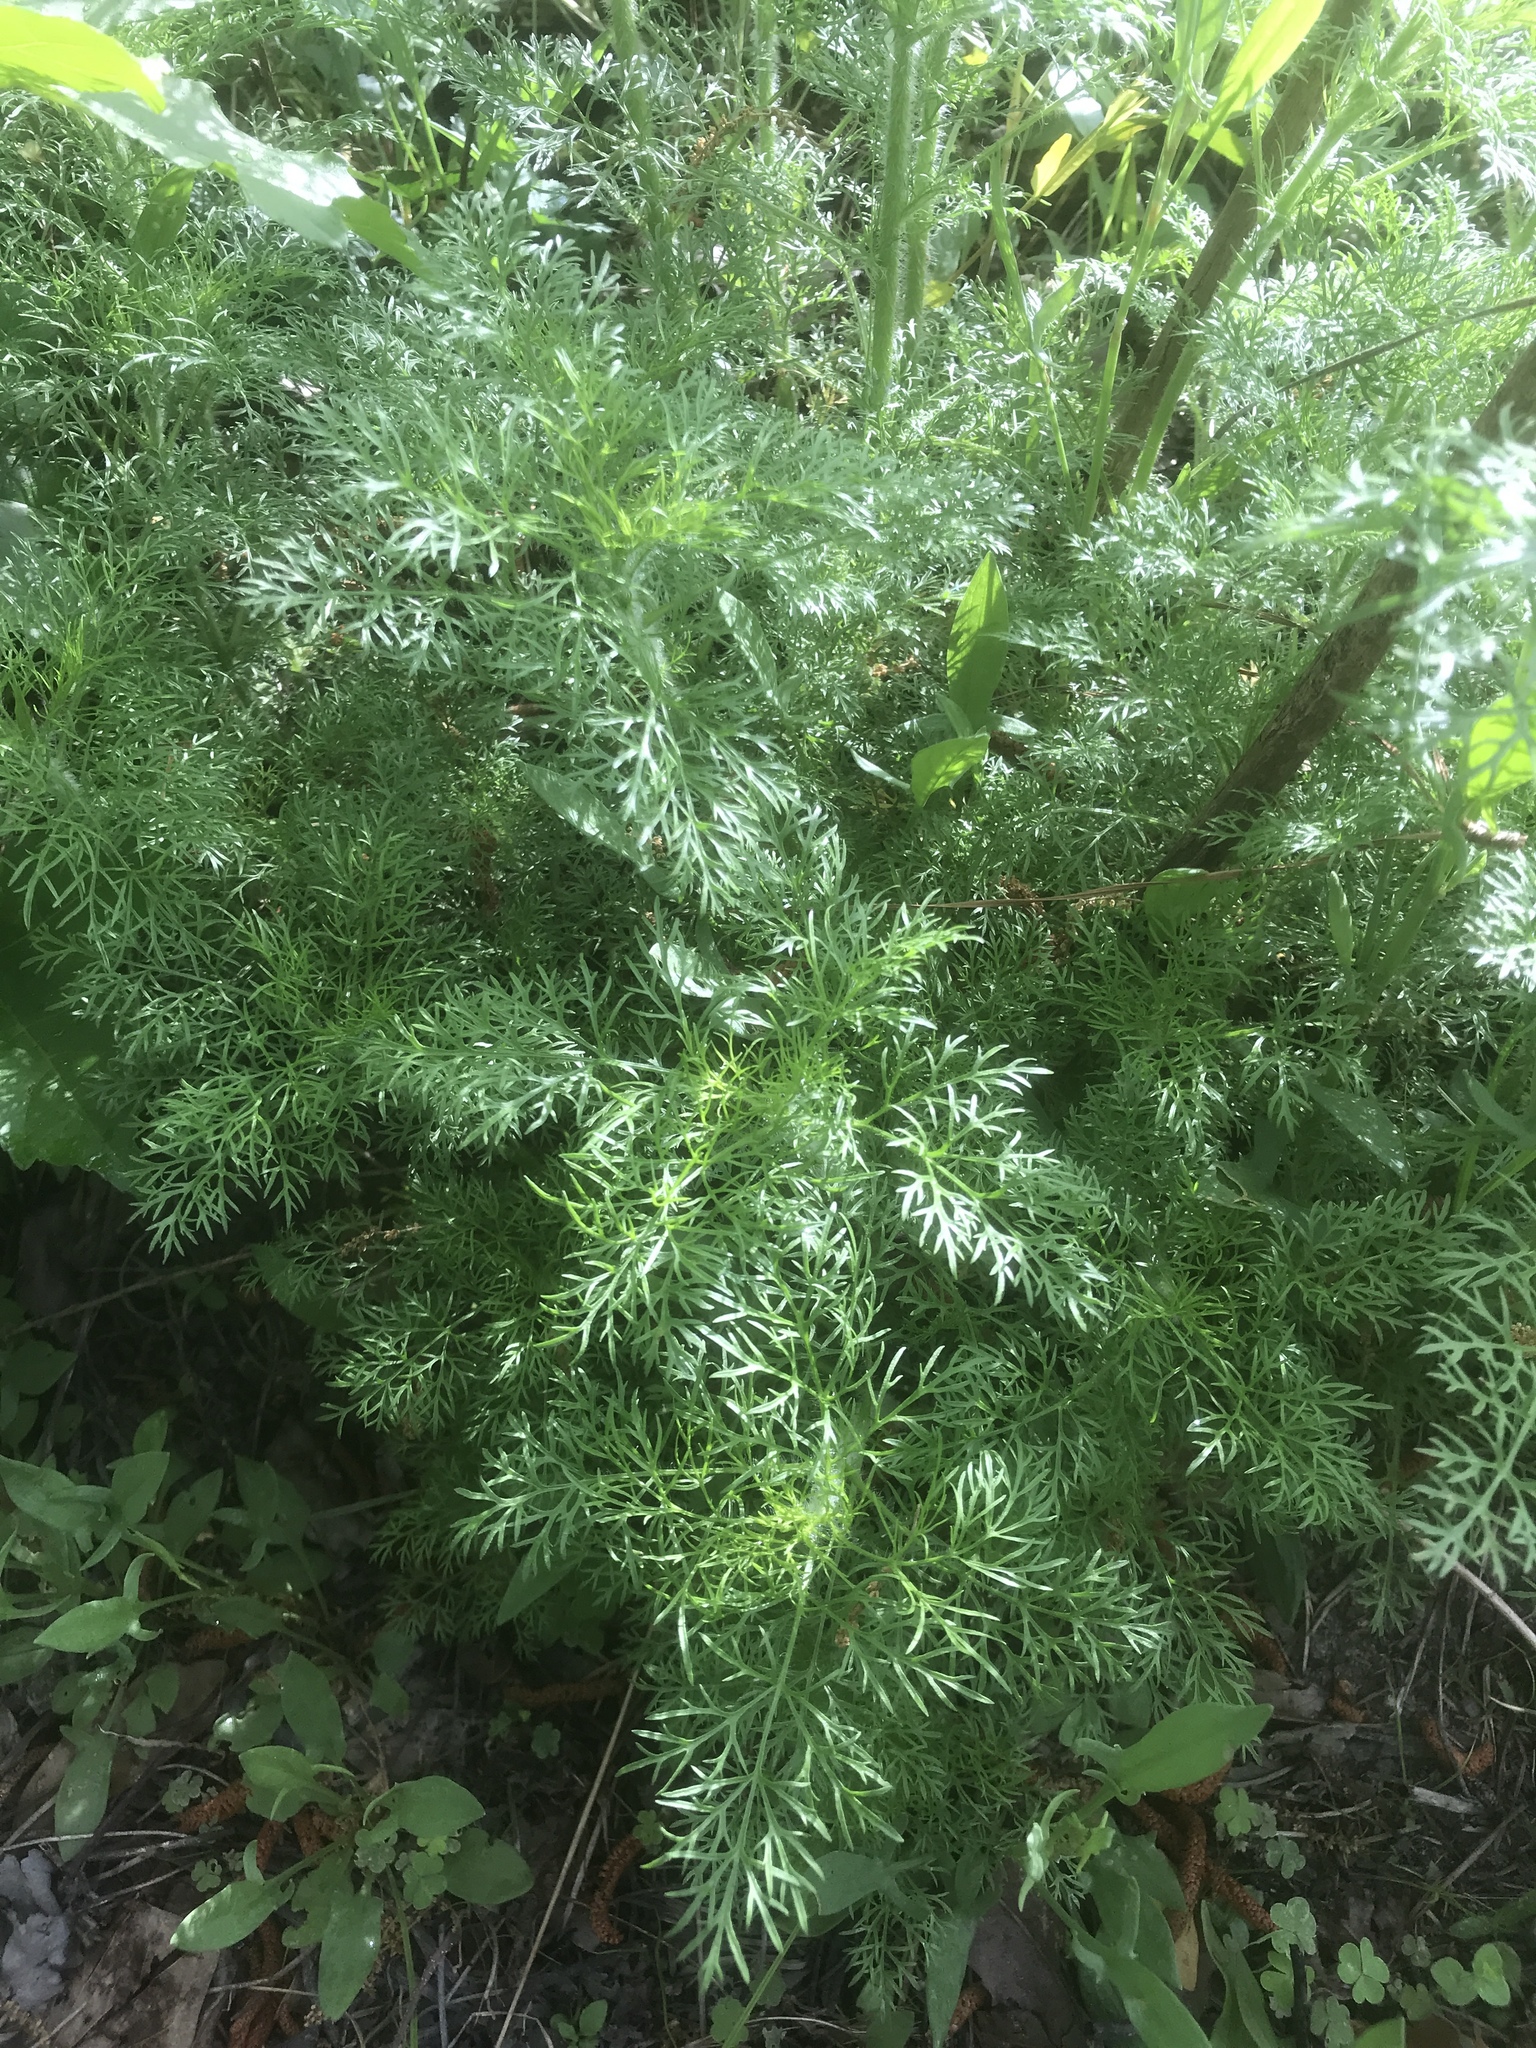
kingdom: Plantae
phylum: Tracheophyta
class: Magnoliopsida
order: Asterales
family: Asteraceae
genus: Eupatorium
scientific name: Eupatorium capillifolium
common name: Dog-fennel
